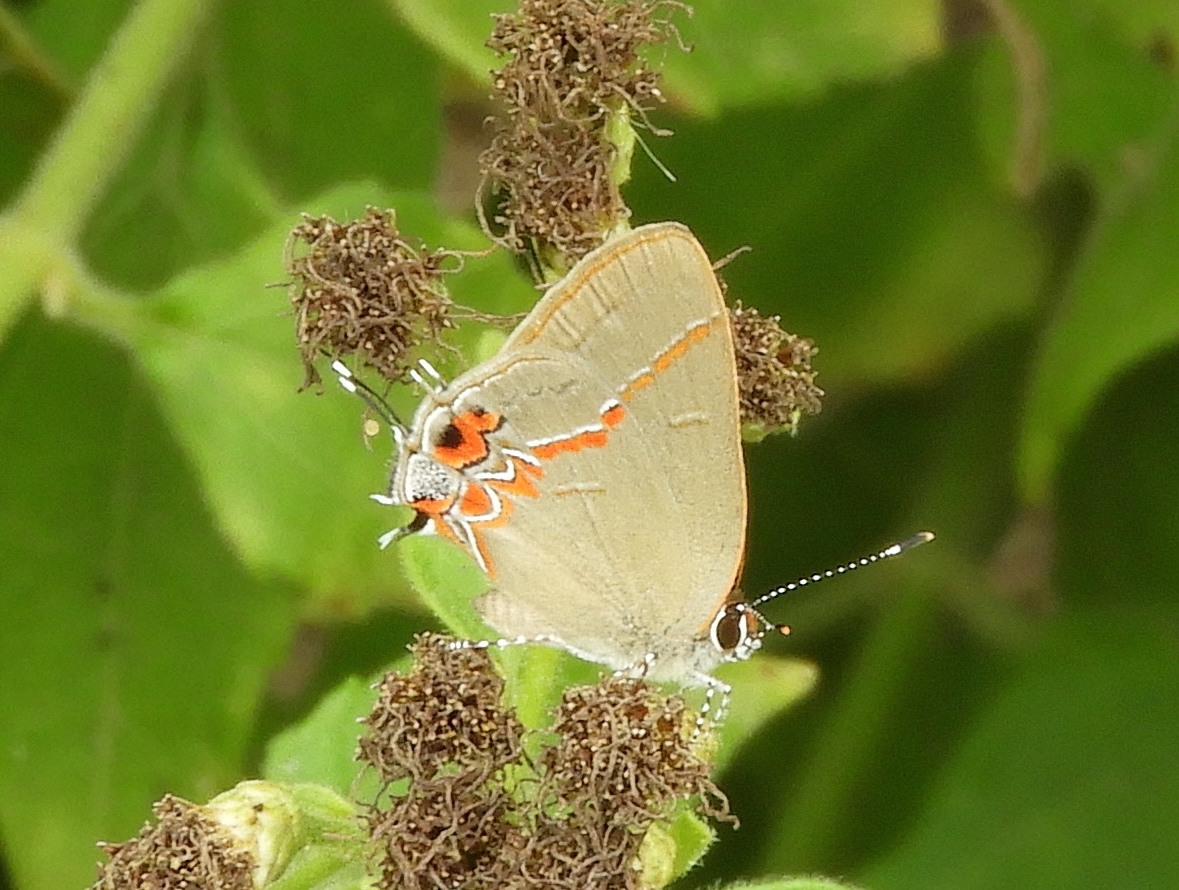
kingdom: Animalia
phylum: Arthropoda
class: Insecta
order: Lepidoptera
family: Lycaenidae
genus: Calycopis
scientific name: Calycopis isobeon
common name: Dusky-blue groundstreak
